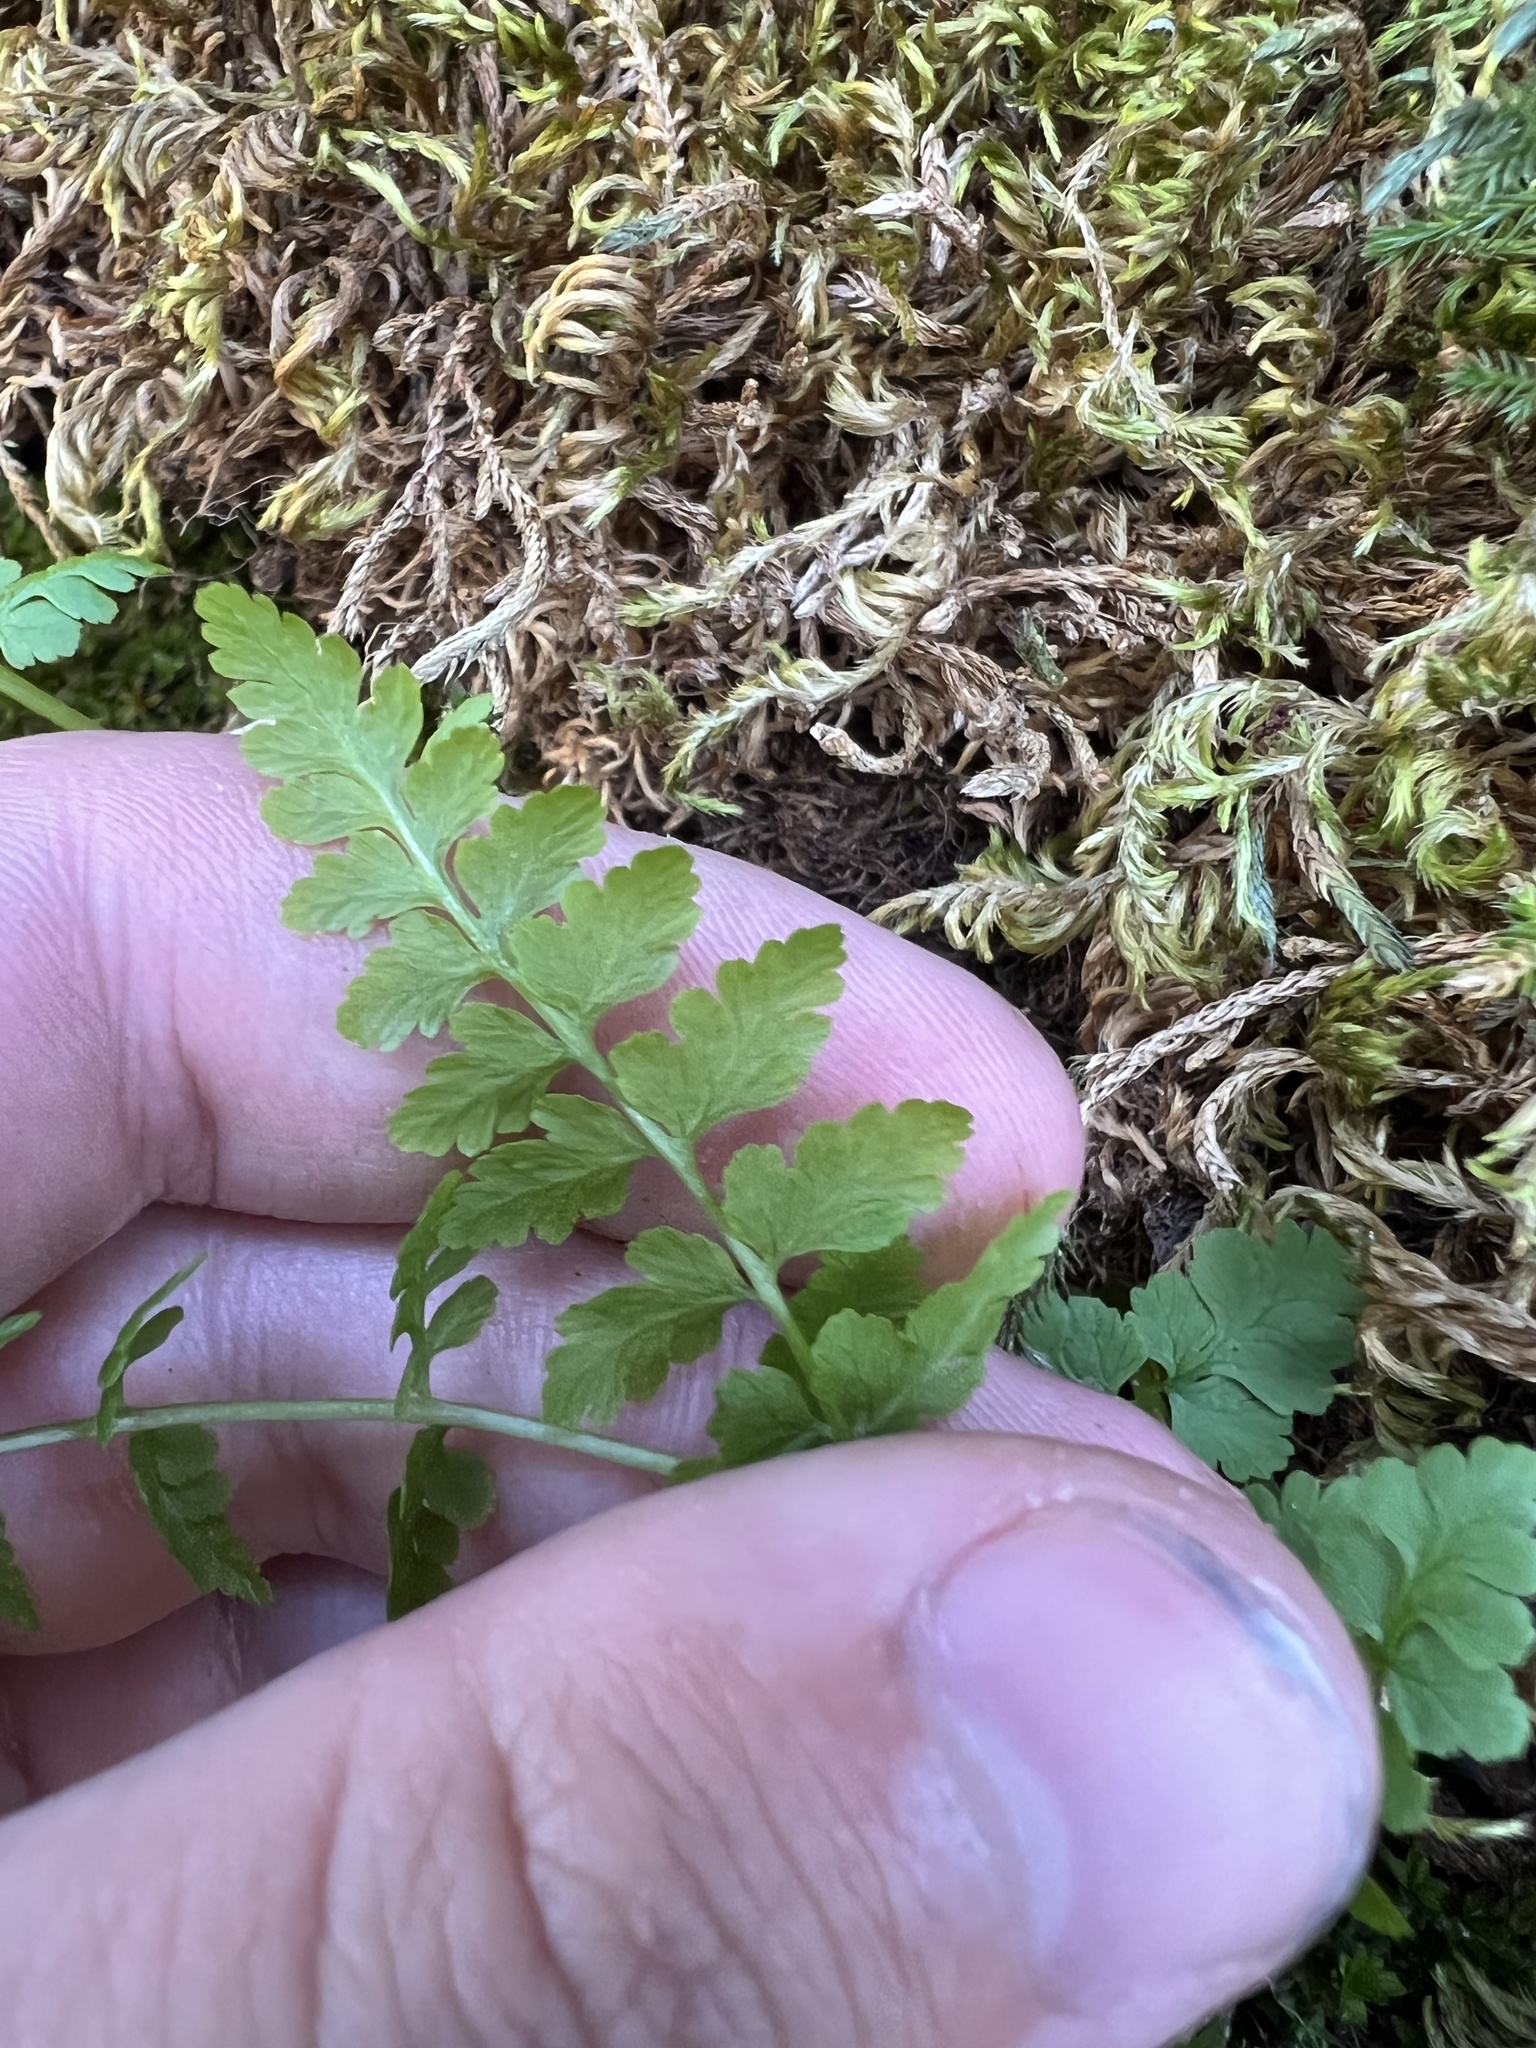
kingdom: Plantae
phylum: Tracheophyta
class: Polypodiopsida
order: Polypodiales
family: Cystopteridaceae
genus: Cystopteris
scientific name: Cystopteris fragilis
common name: Brittle bladder fern
